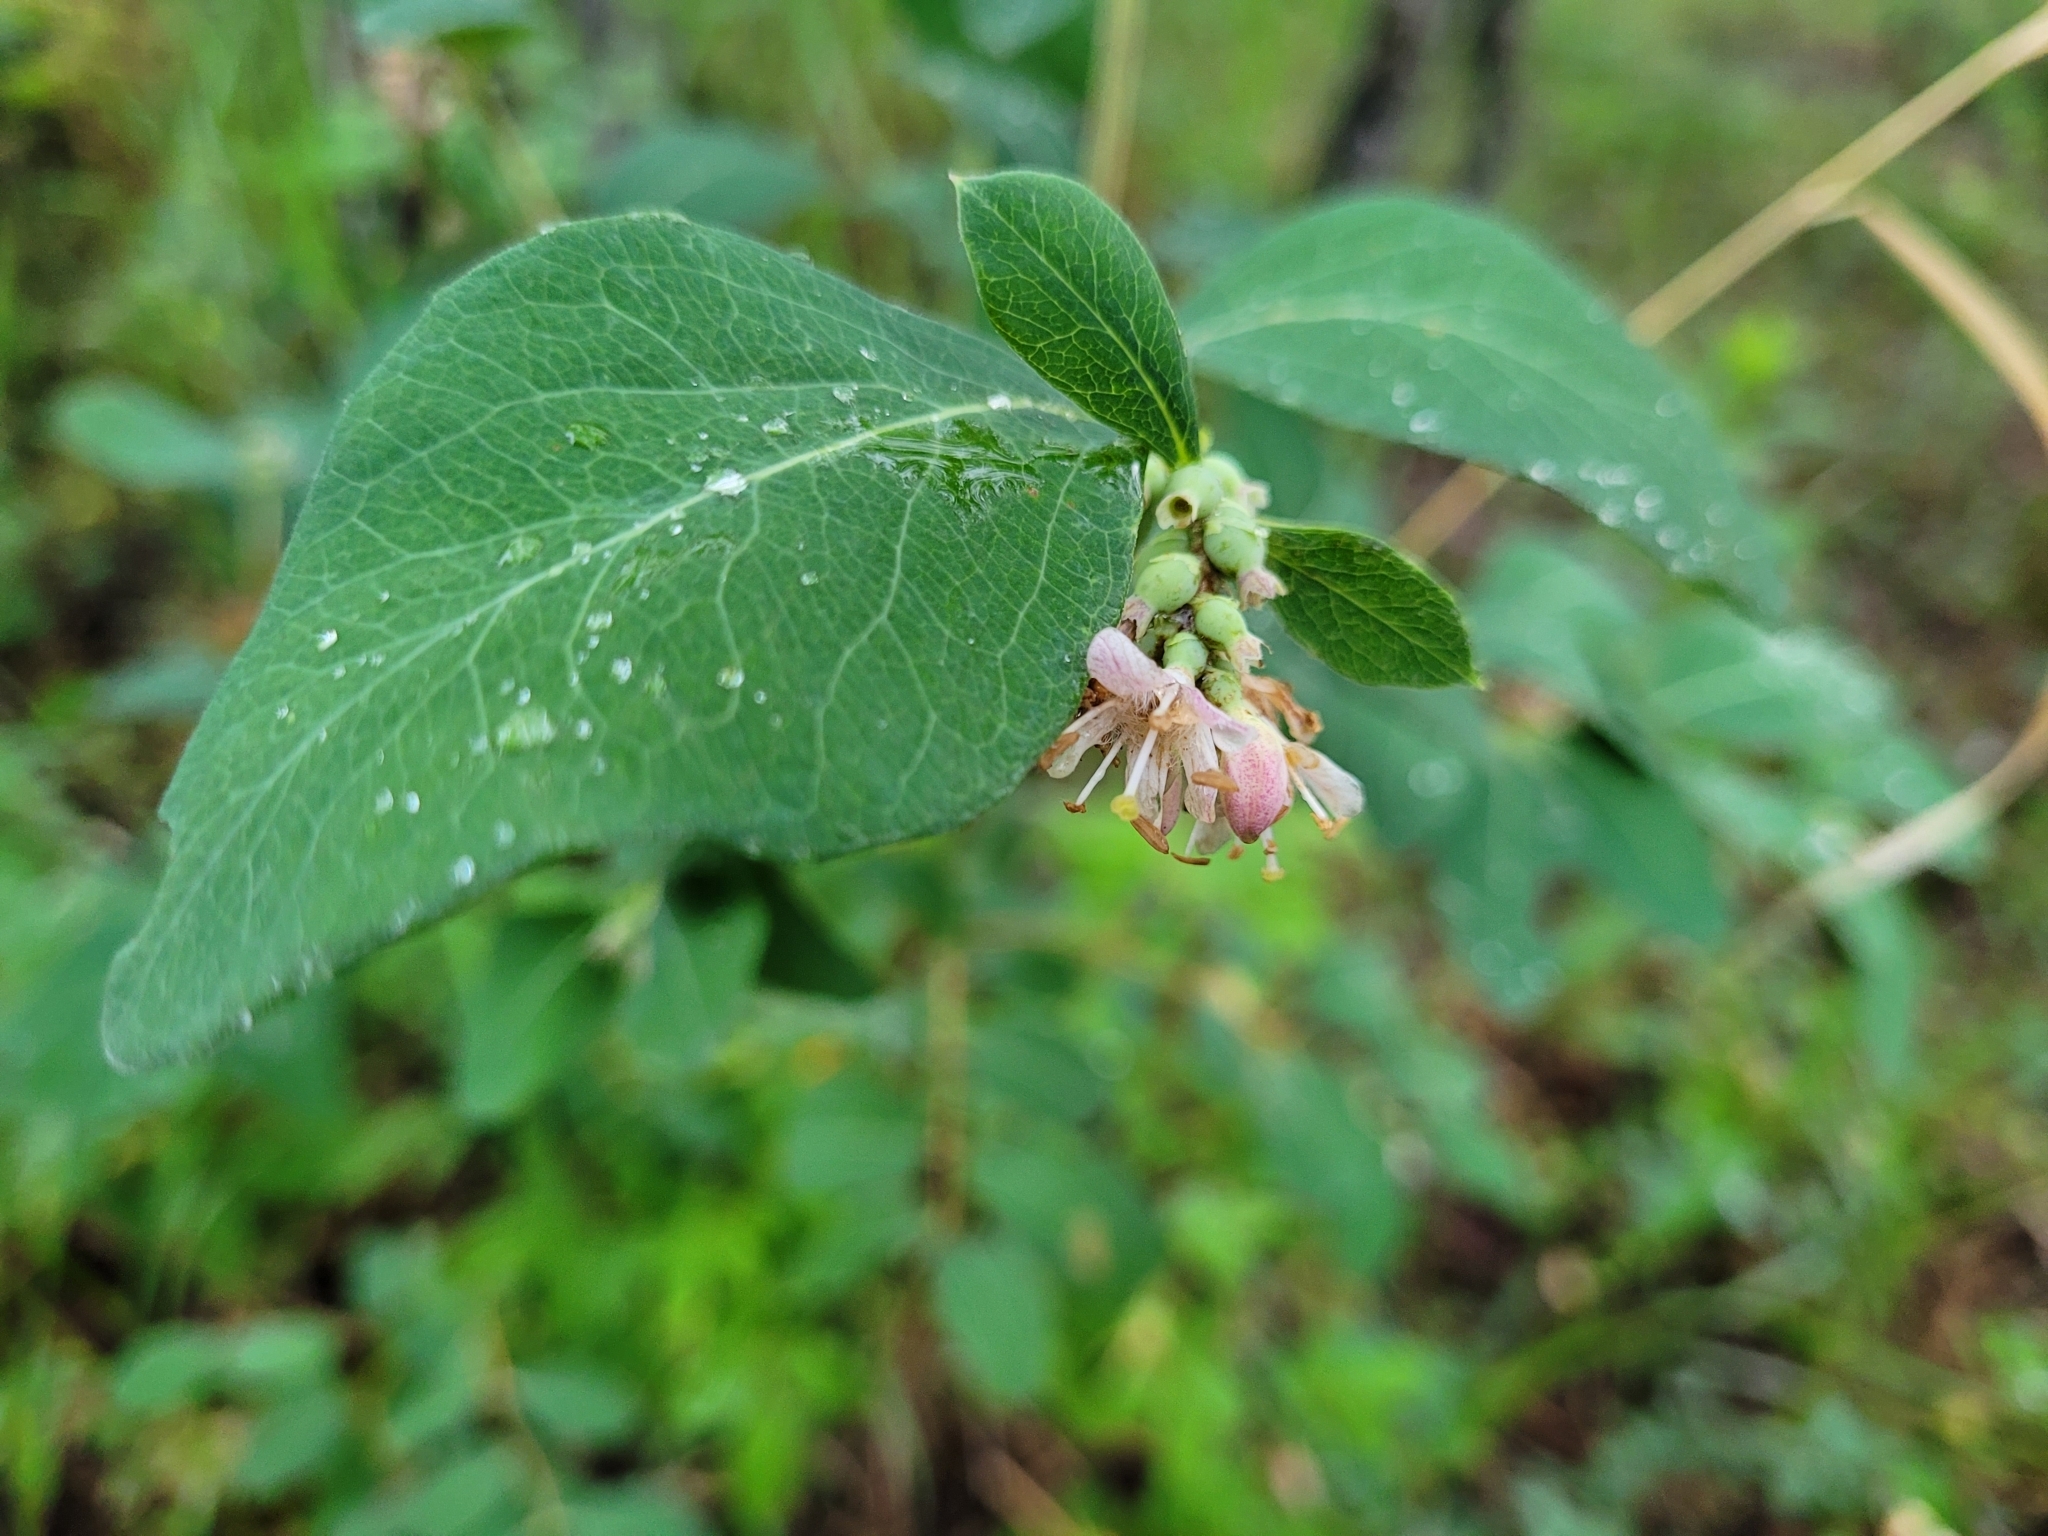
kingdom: Plantae
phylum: Tracheophyta
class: Magnoliopsida
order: Dipsacales
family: Caprifoliaceae
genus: Symphoricarpos
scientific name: Symphoricarpos occidentalis
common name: Wolfberry
